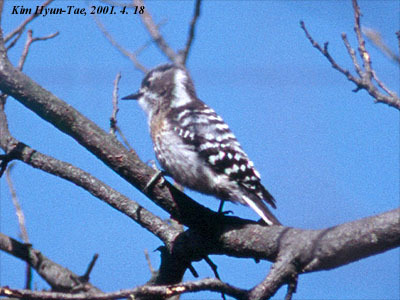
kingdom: Animalia
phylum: Chordata
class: Aves
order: Piciformes
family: Picidae
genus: Yungipicus
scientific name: Yungipicus kizuki
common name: Japanese pygmy woodpecker
